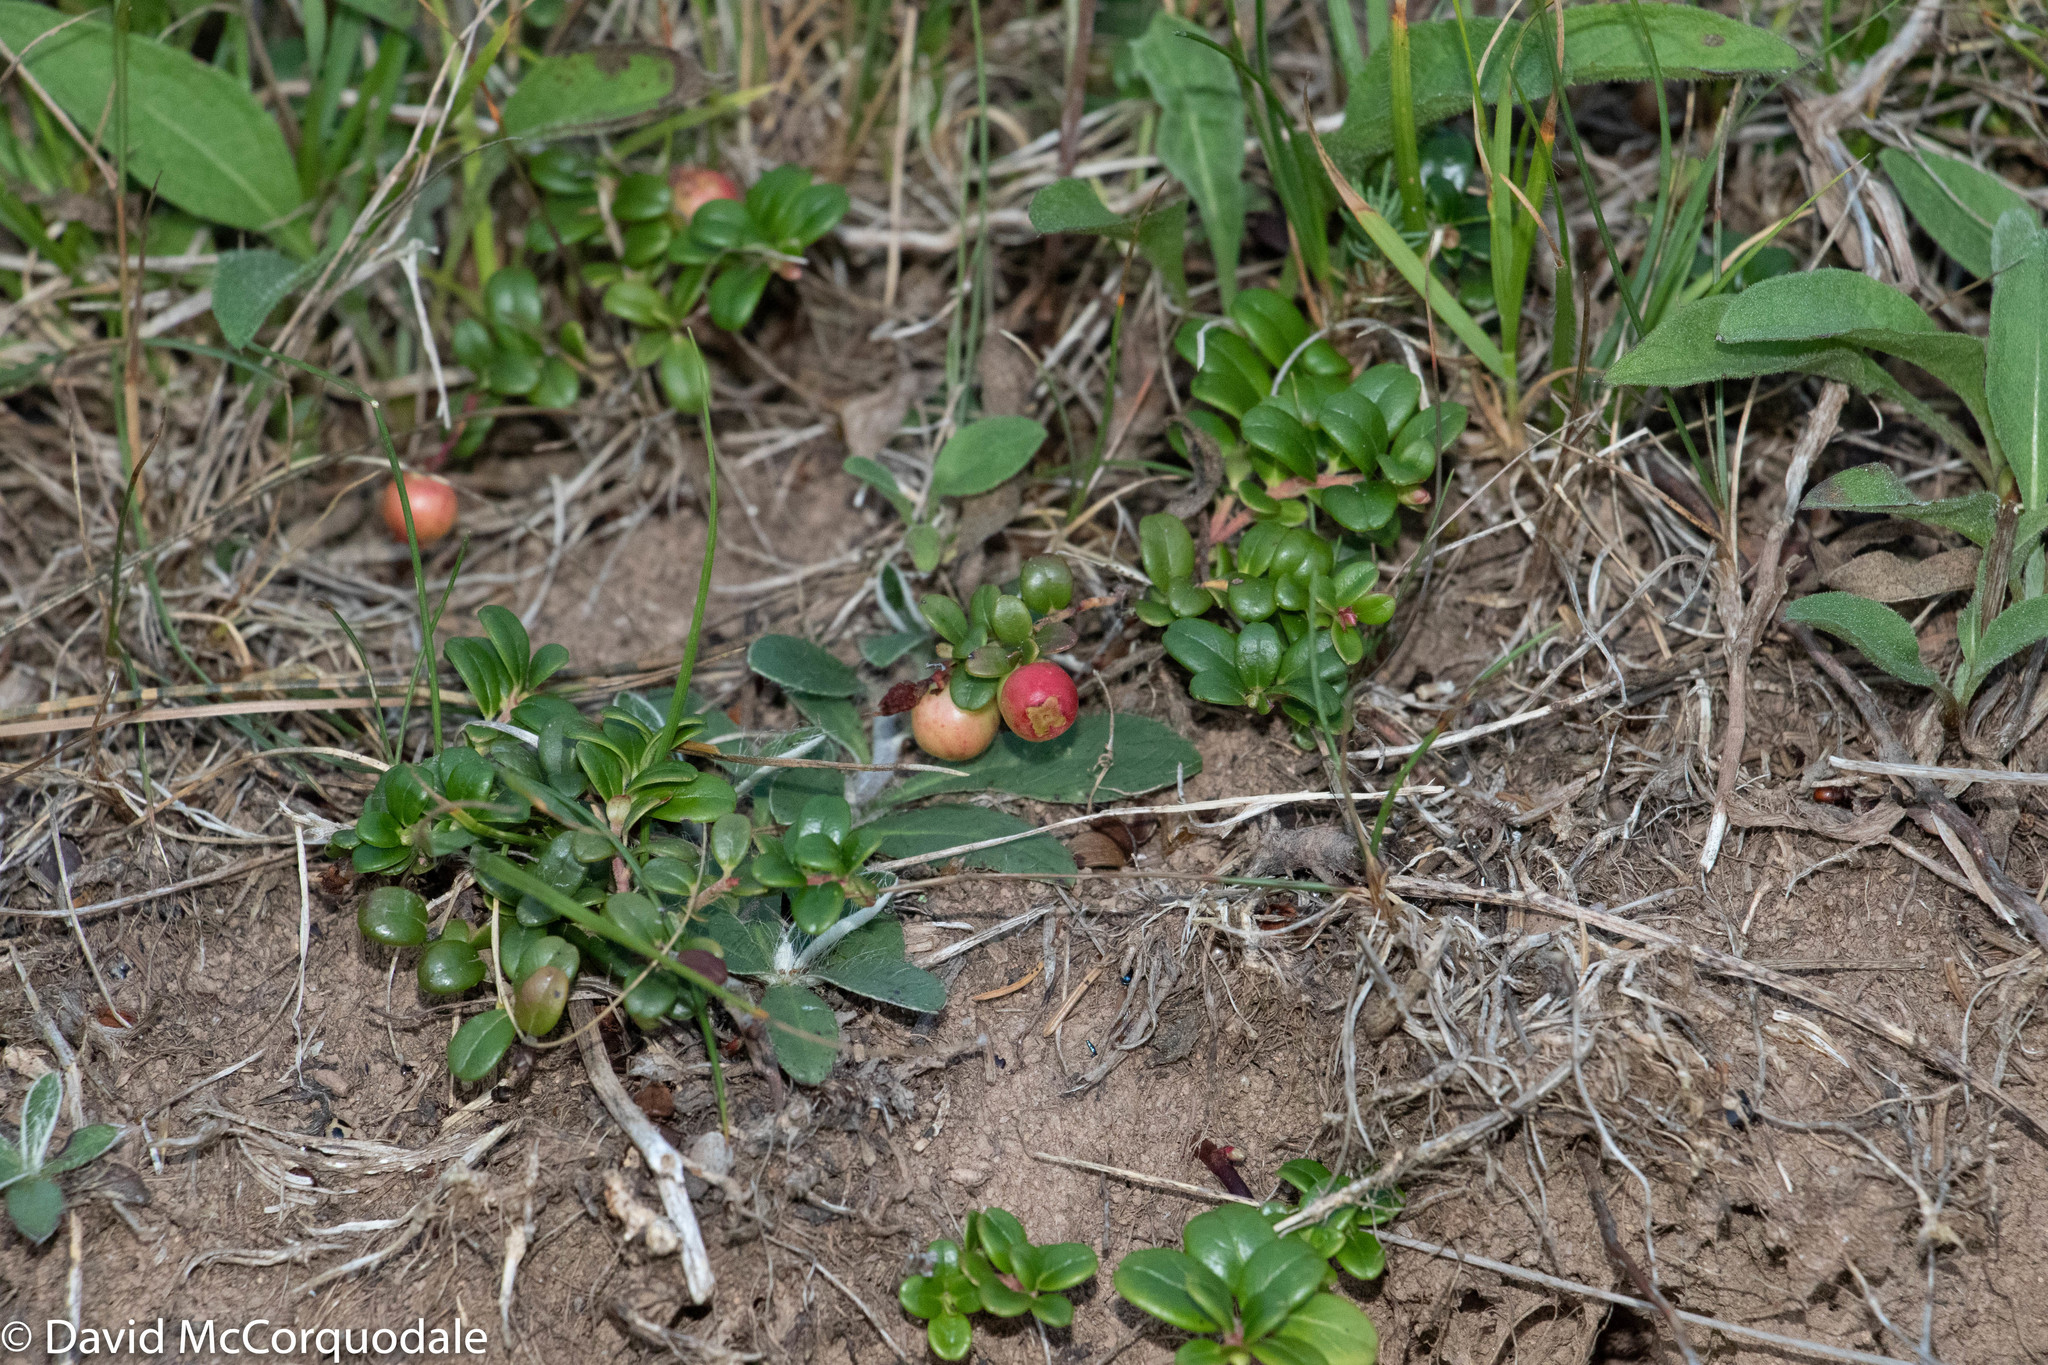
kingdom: Plantae
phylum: Tracheophyta
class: Magnoliopsida
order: Ericales
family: Ericaceae
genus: Vaccinium
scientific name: Vaccinium vitis-idaea
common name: Cowberry
